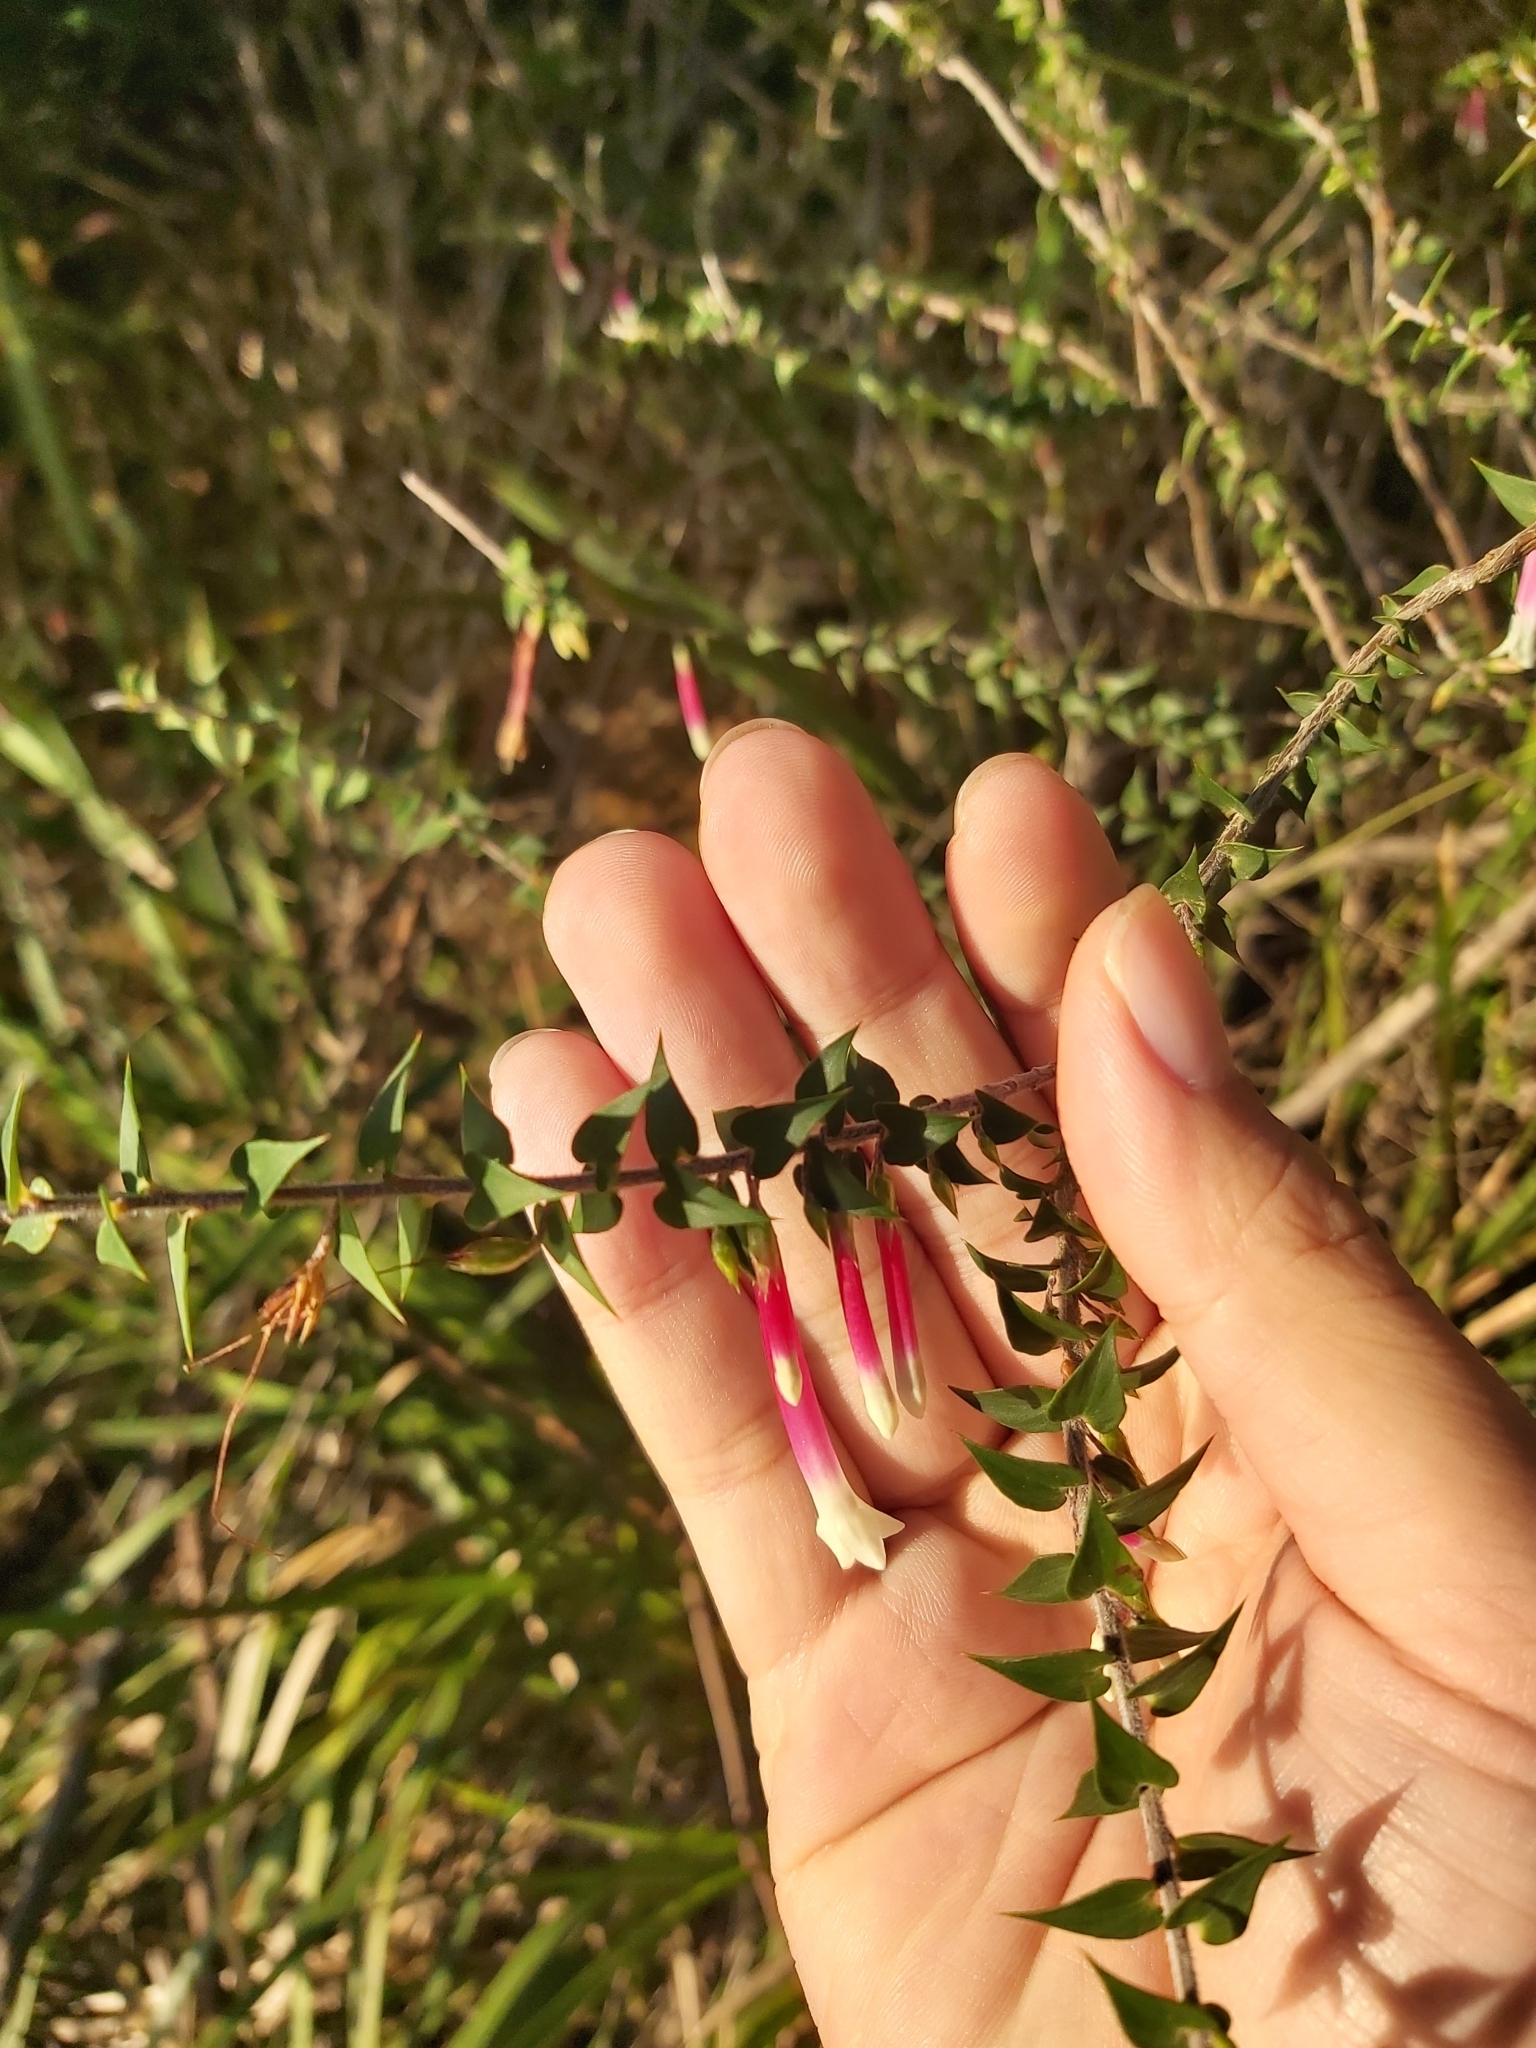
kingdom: Plantae
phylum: Tracheophyta
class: Magnoliopsida
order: Ericales
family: Ericaceae
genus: Epacris
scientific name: Epacris longiflora
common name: Fuchsia-heath
